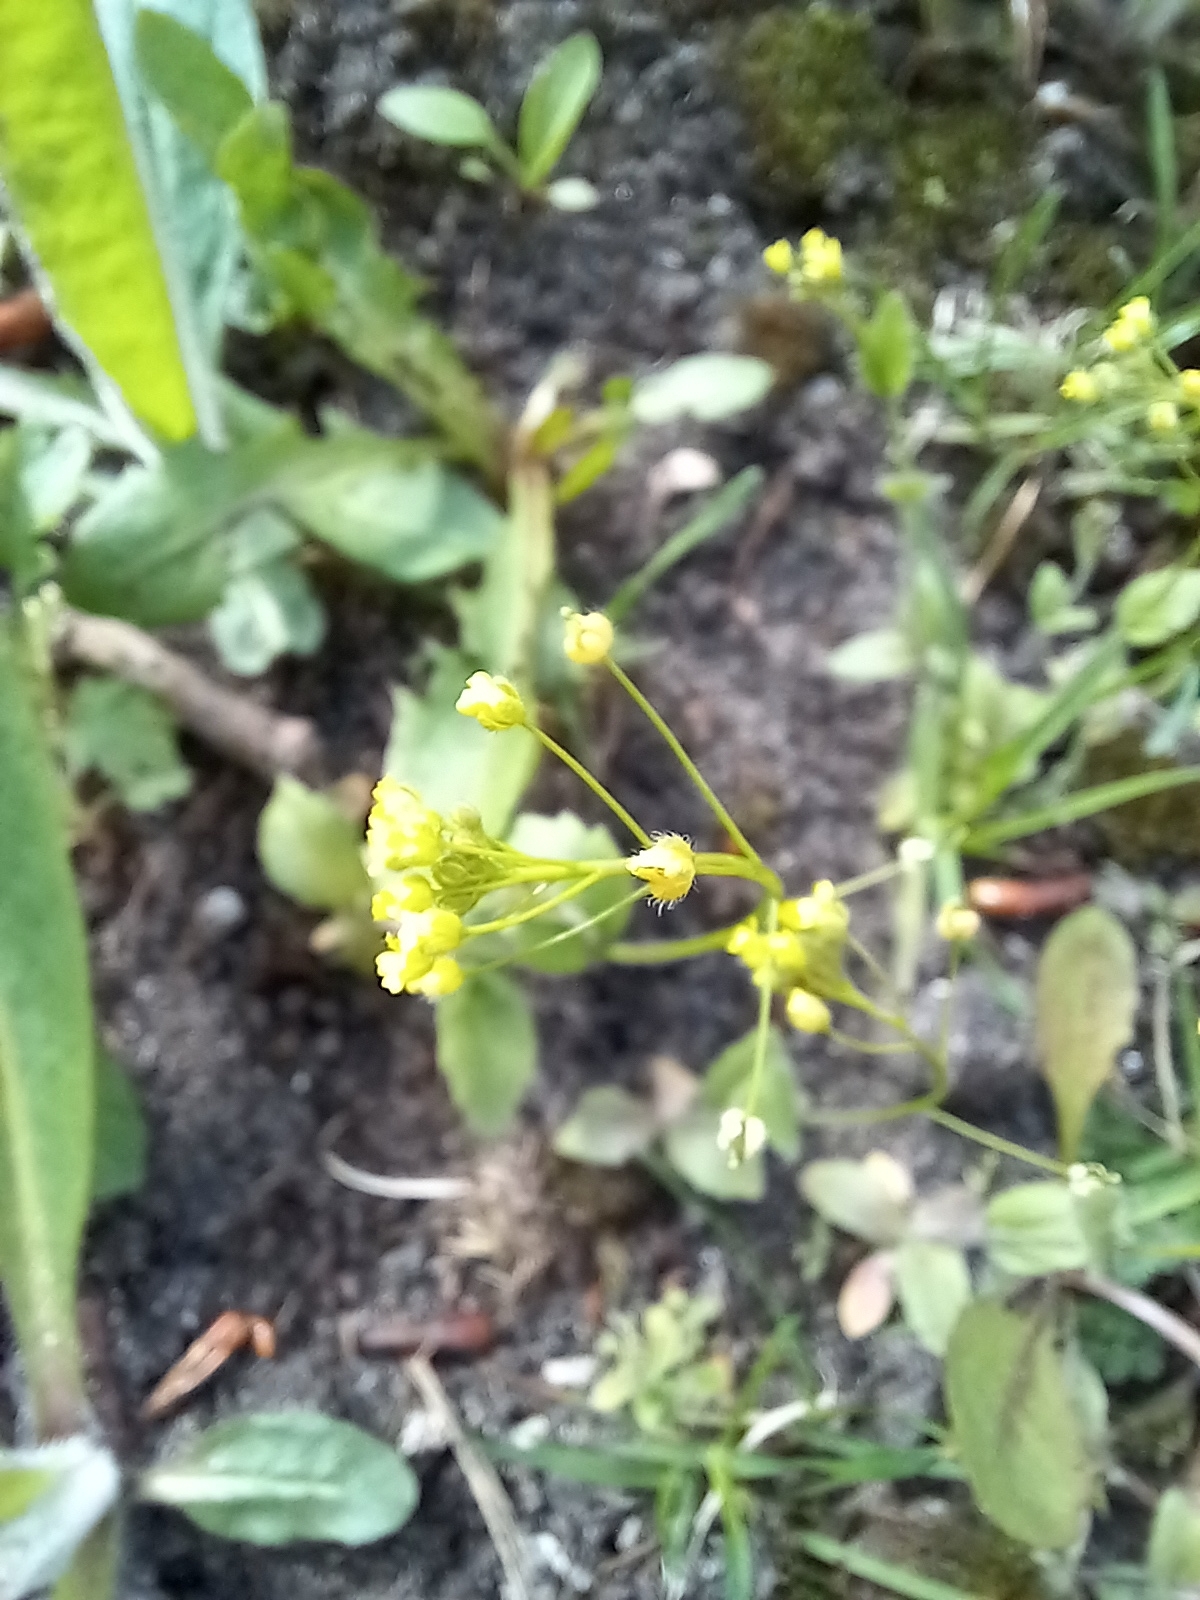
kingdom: Plantae
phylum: Tracheophyta
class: Magnoliopsida
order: Brassicales
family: Brassicaceae
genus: Draba
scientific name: Draba nemorosa
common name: Wood whitlow-grass
